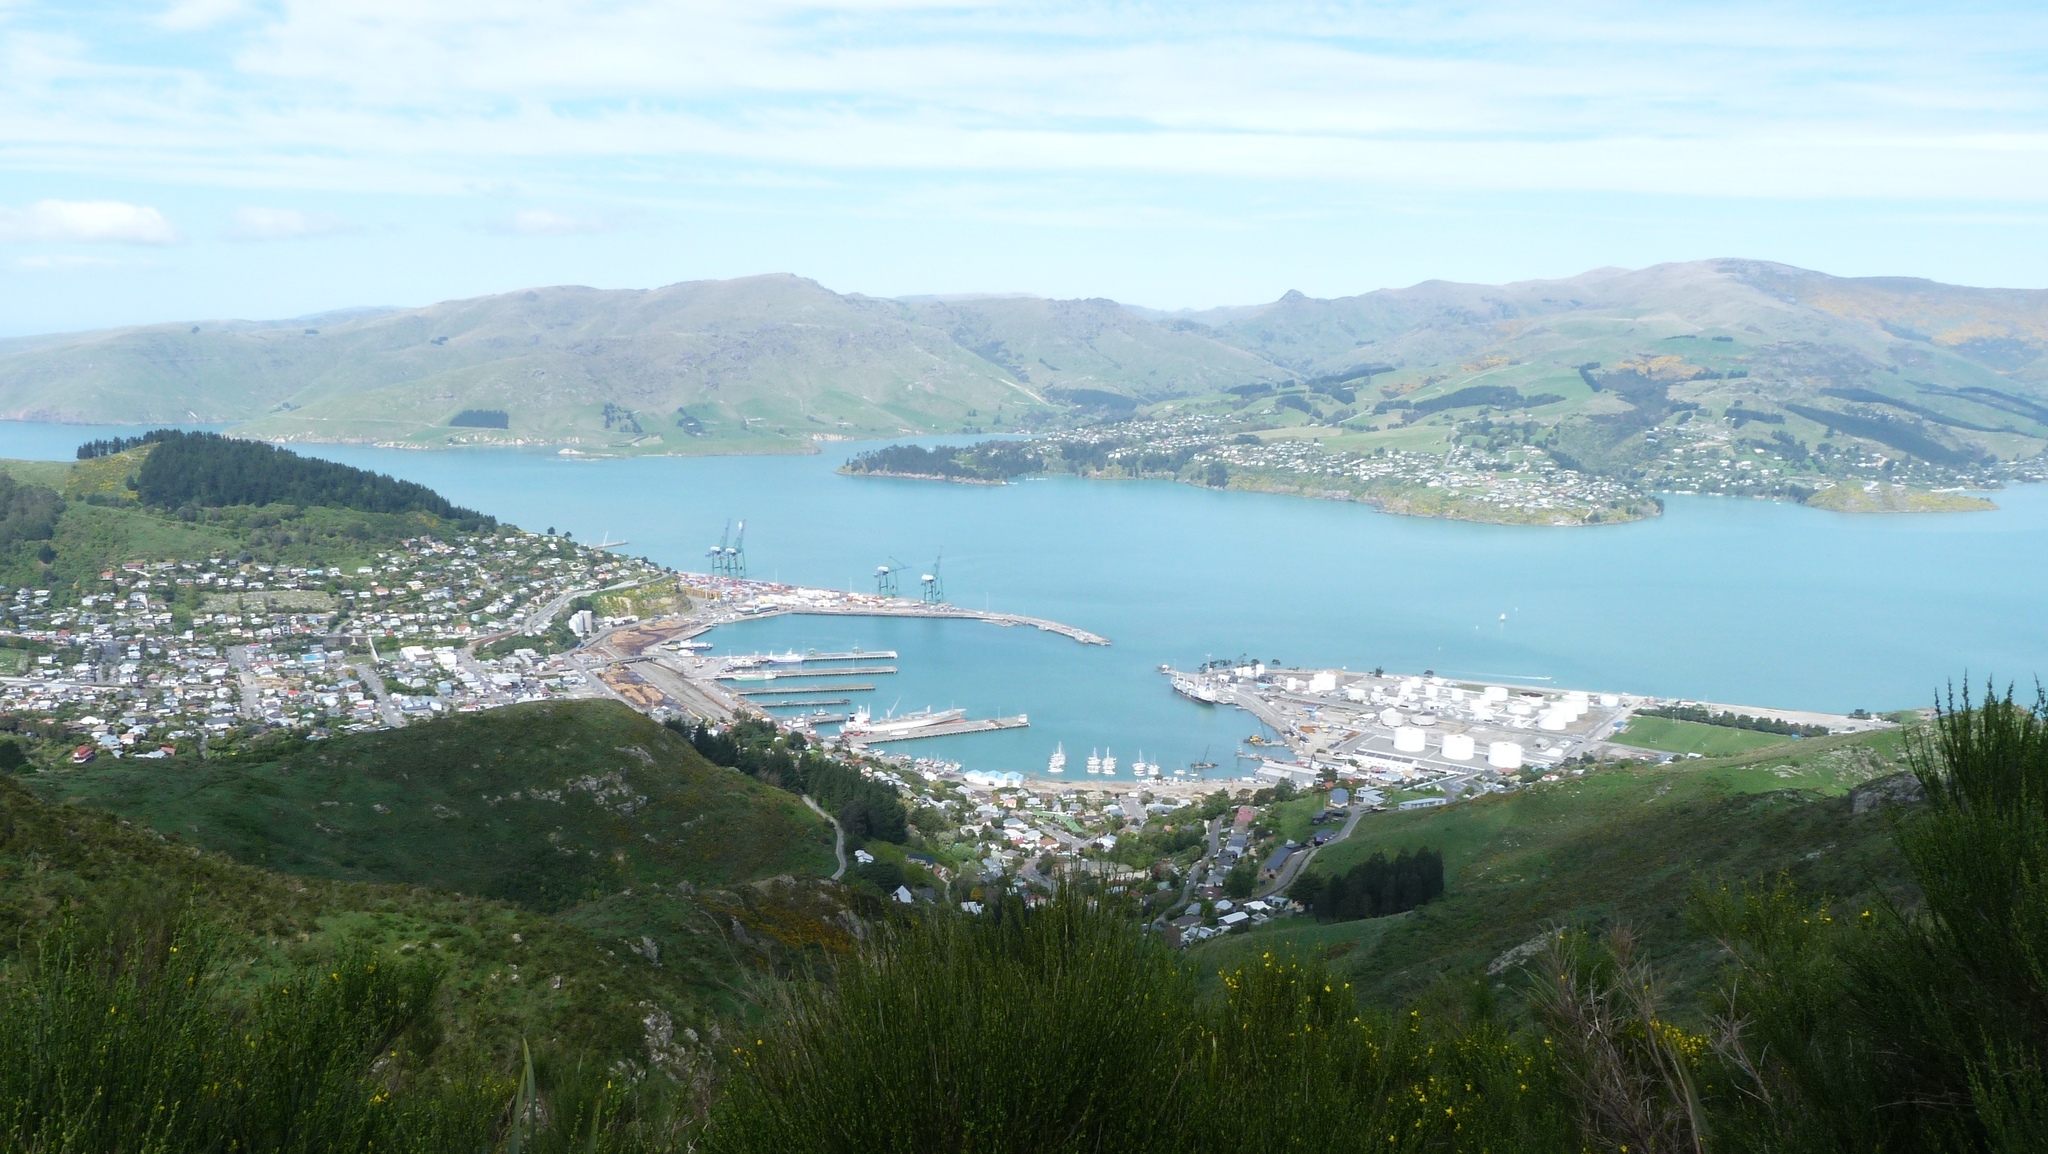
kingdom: Plantae
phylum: Tracheophyta
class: Magnoliopsida
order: Fabales
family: Fabaceae
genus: Cytisus
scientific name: Cytisus scoparius
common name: Scotch broom
